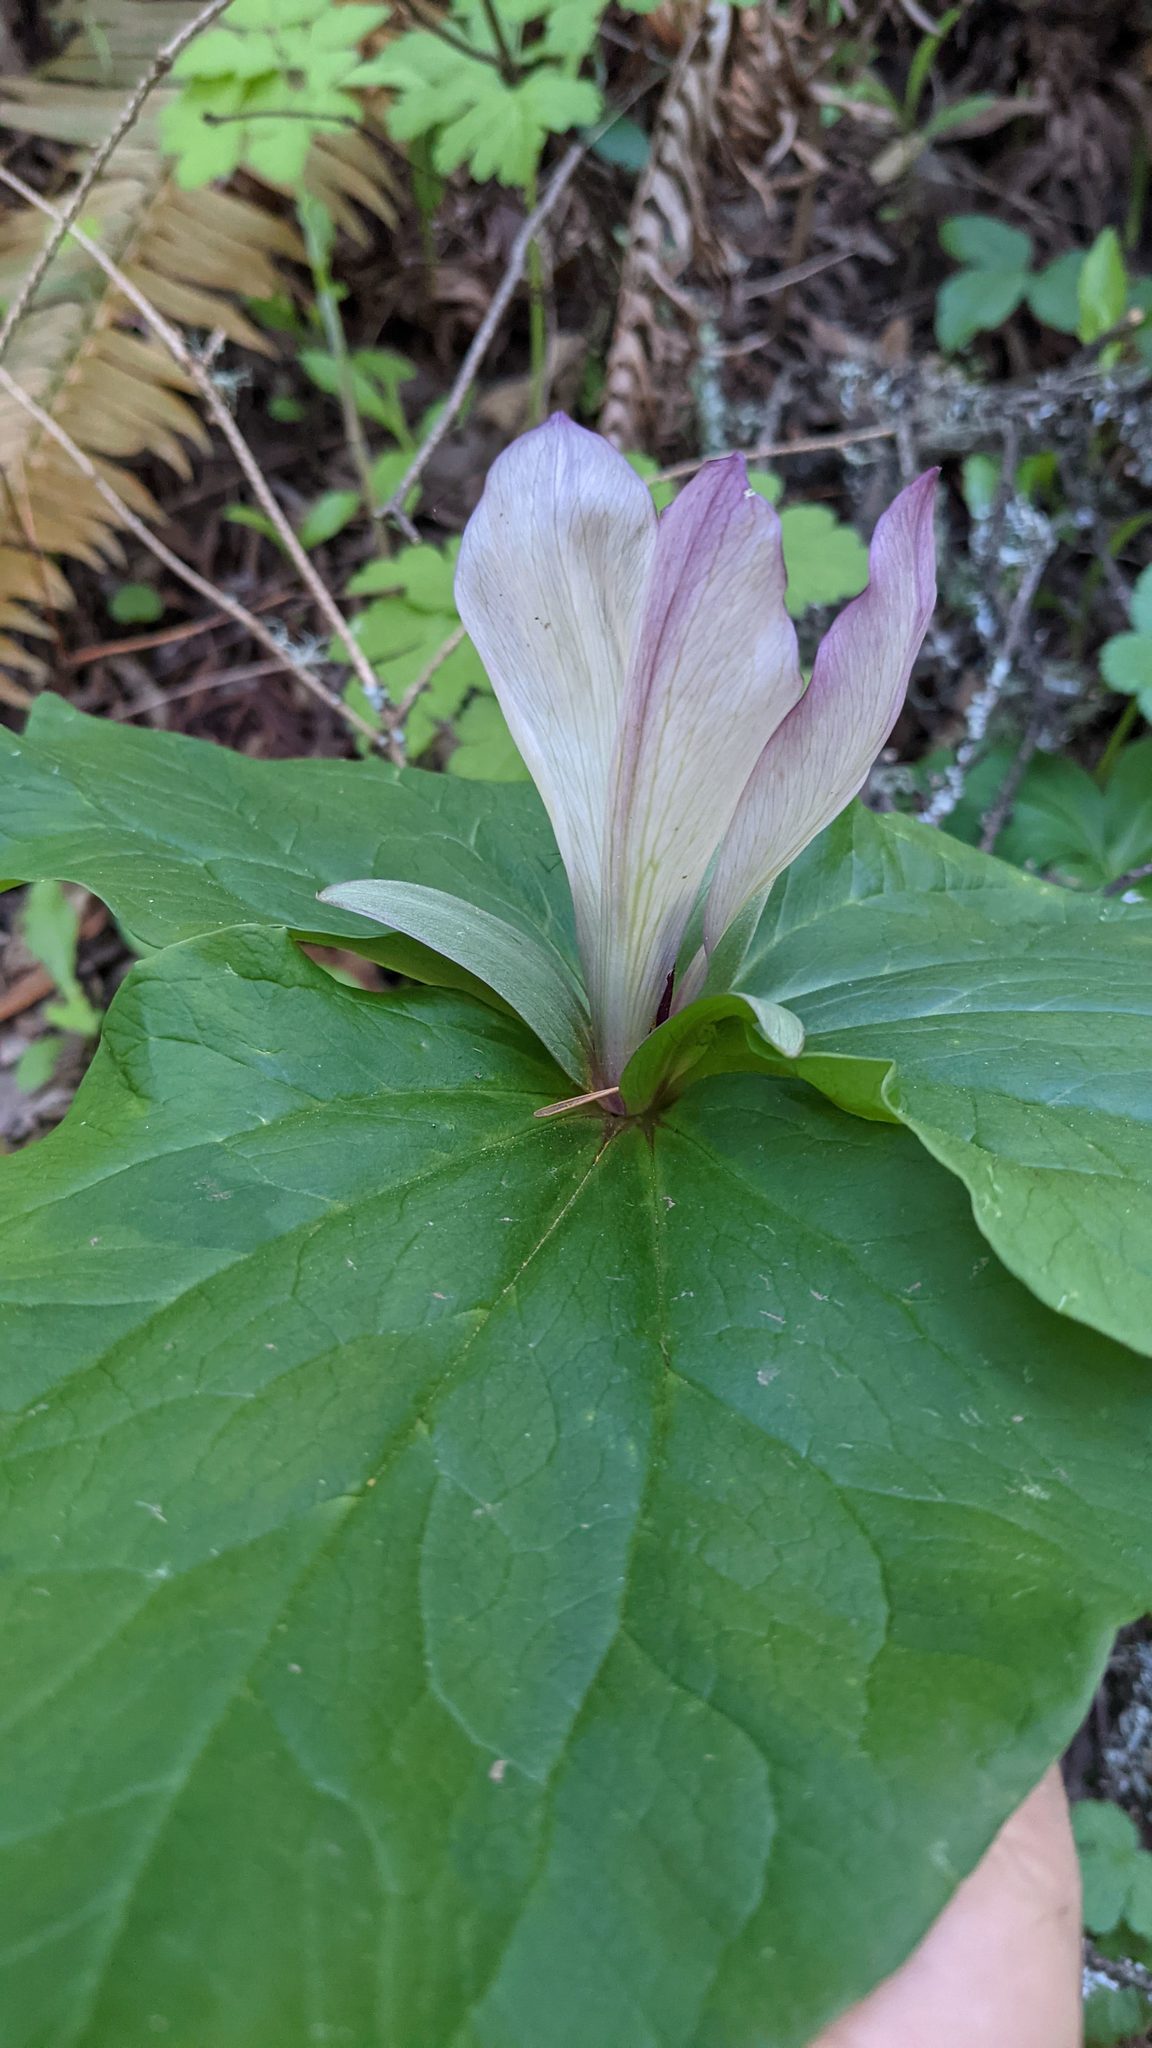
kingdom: Plantae
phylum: Tracheophyta
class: Liliopsida
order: Liliales
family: Melanthiaceae
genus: Trillium
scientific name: Trillium chloropetalum
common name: Giant trillium
